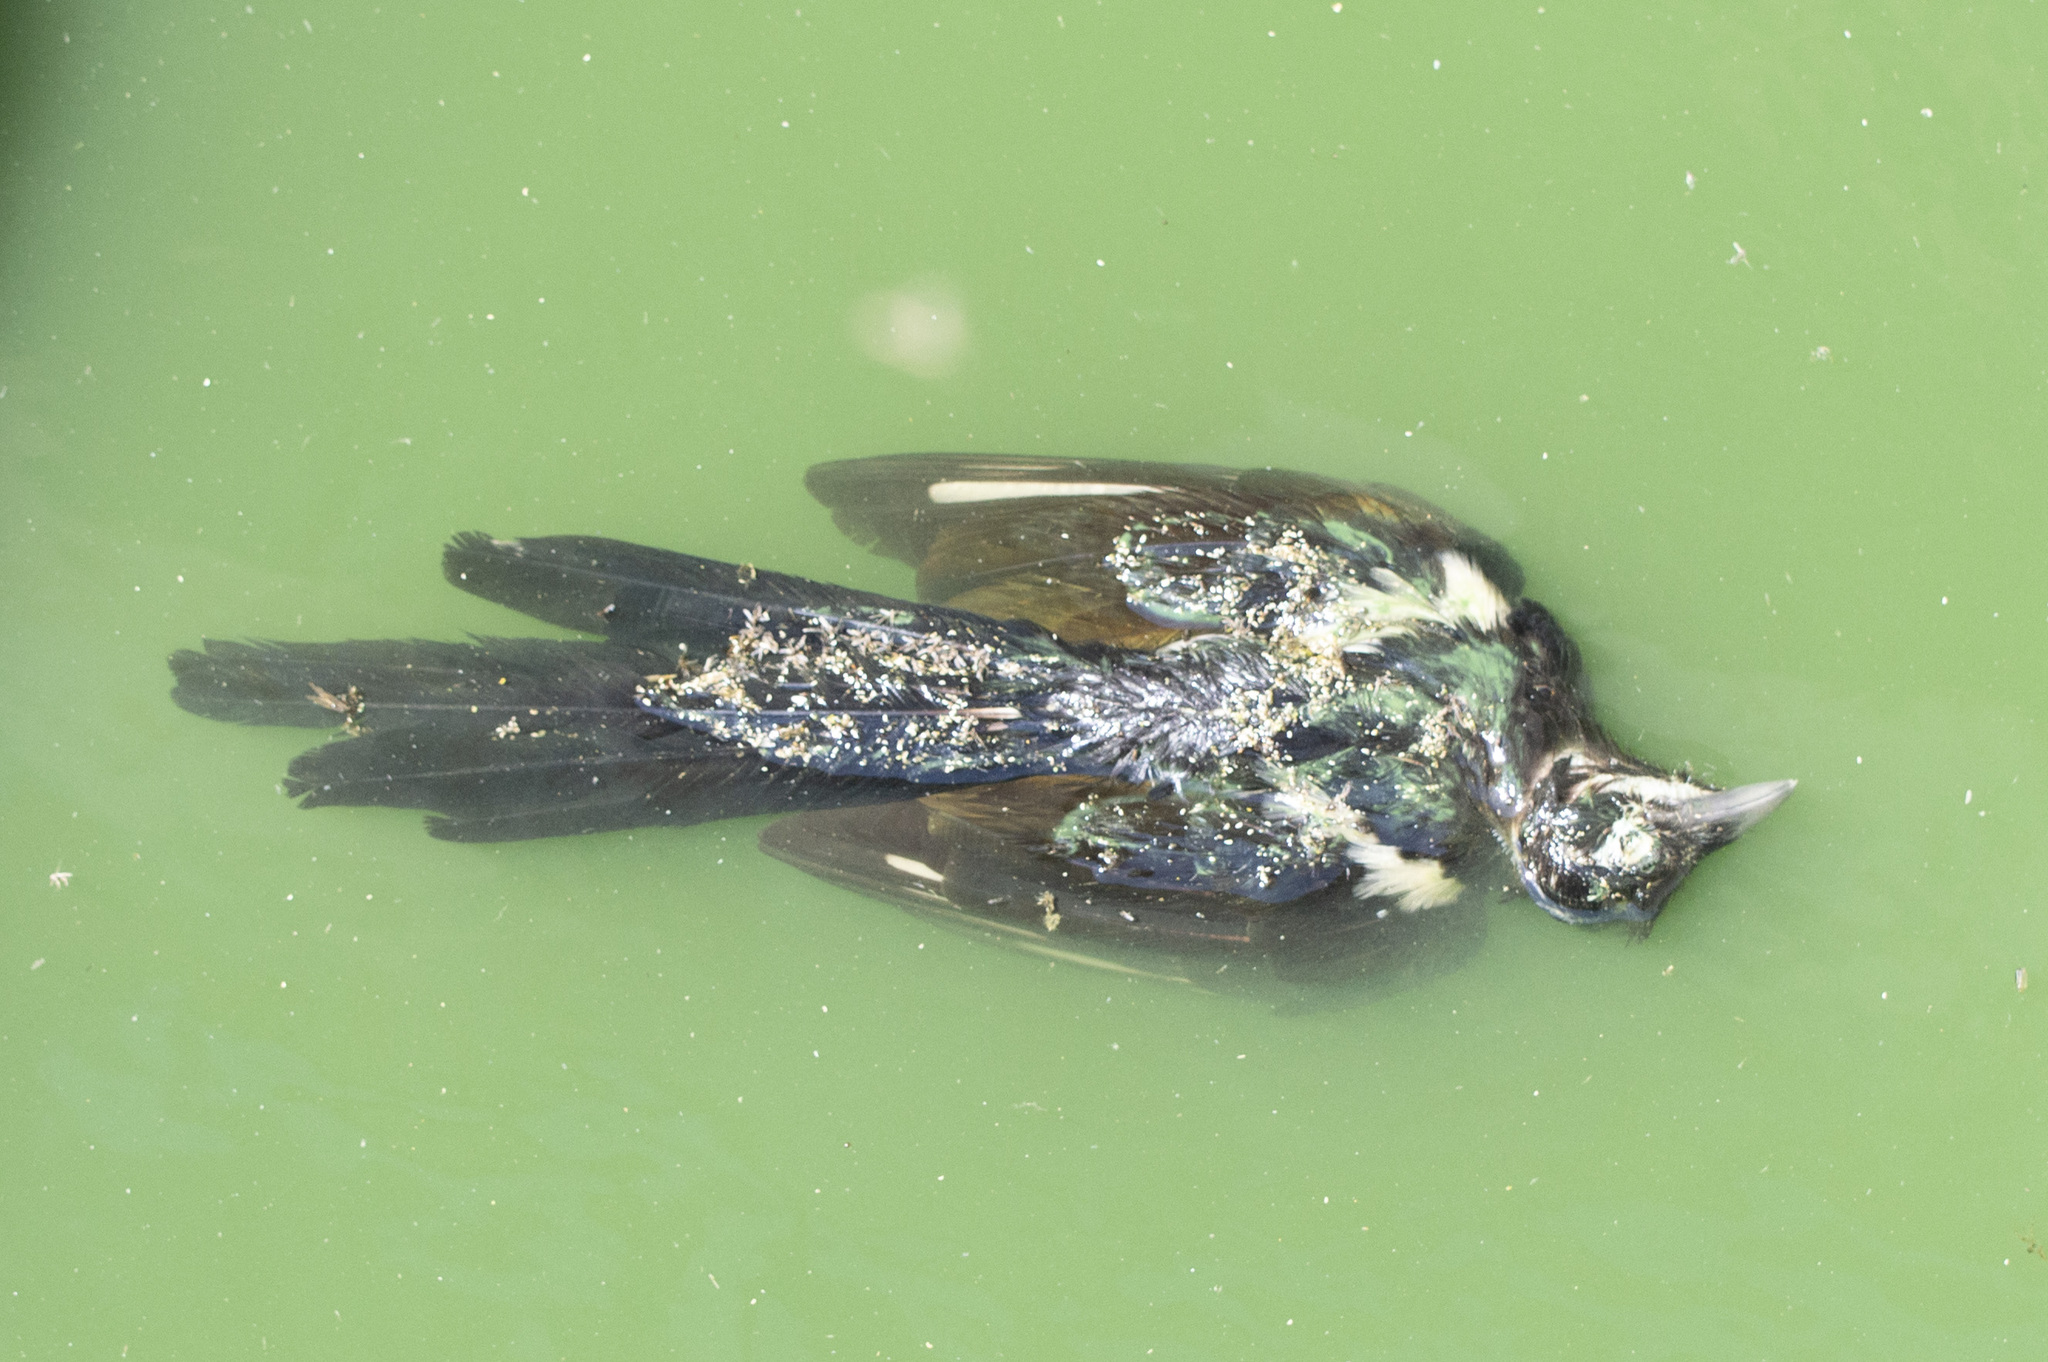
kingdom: Animalia
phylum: Chordata
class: Aves
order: Passeriformes
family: Corvidae
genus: Pica
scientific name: Pica pica
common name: Eurasian magpie
